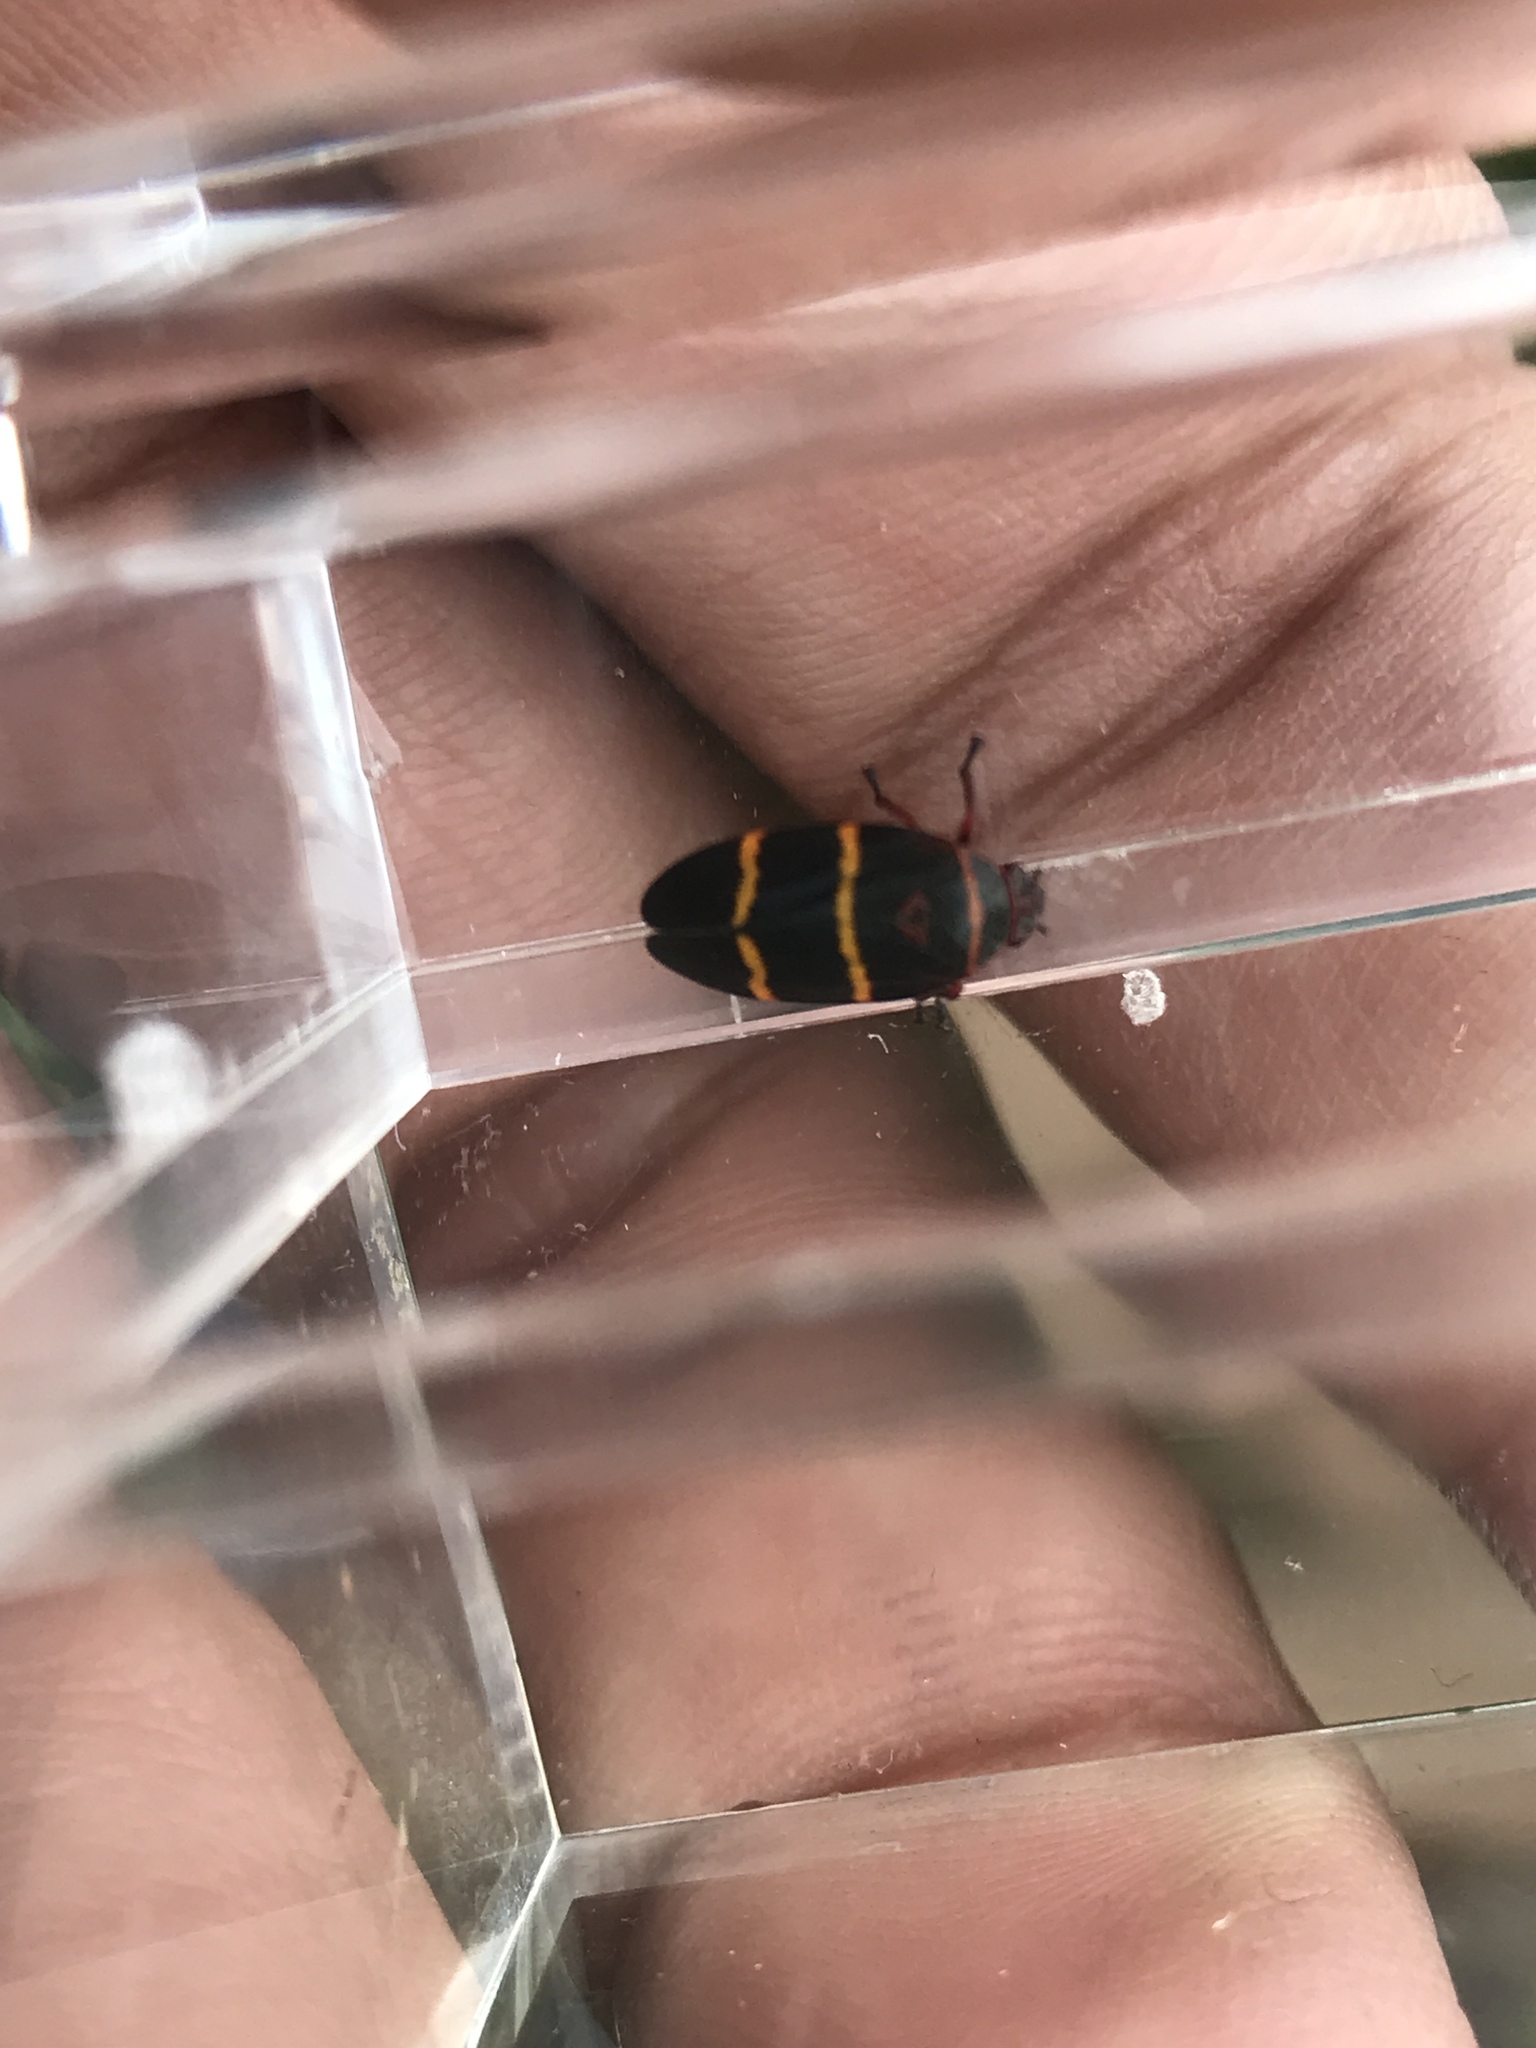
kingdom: Animalia
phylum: Arthropoda
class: Insecta
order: Hemiptera
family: Cercopidae
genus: Prosapia
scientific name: Prosapia bicincta
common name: Twolined spittlebug
